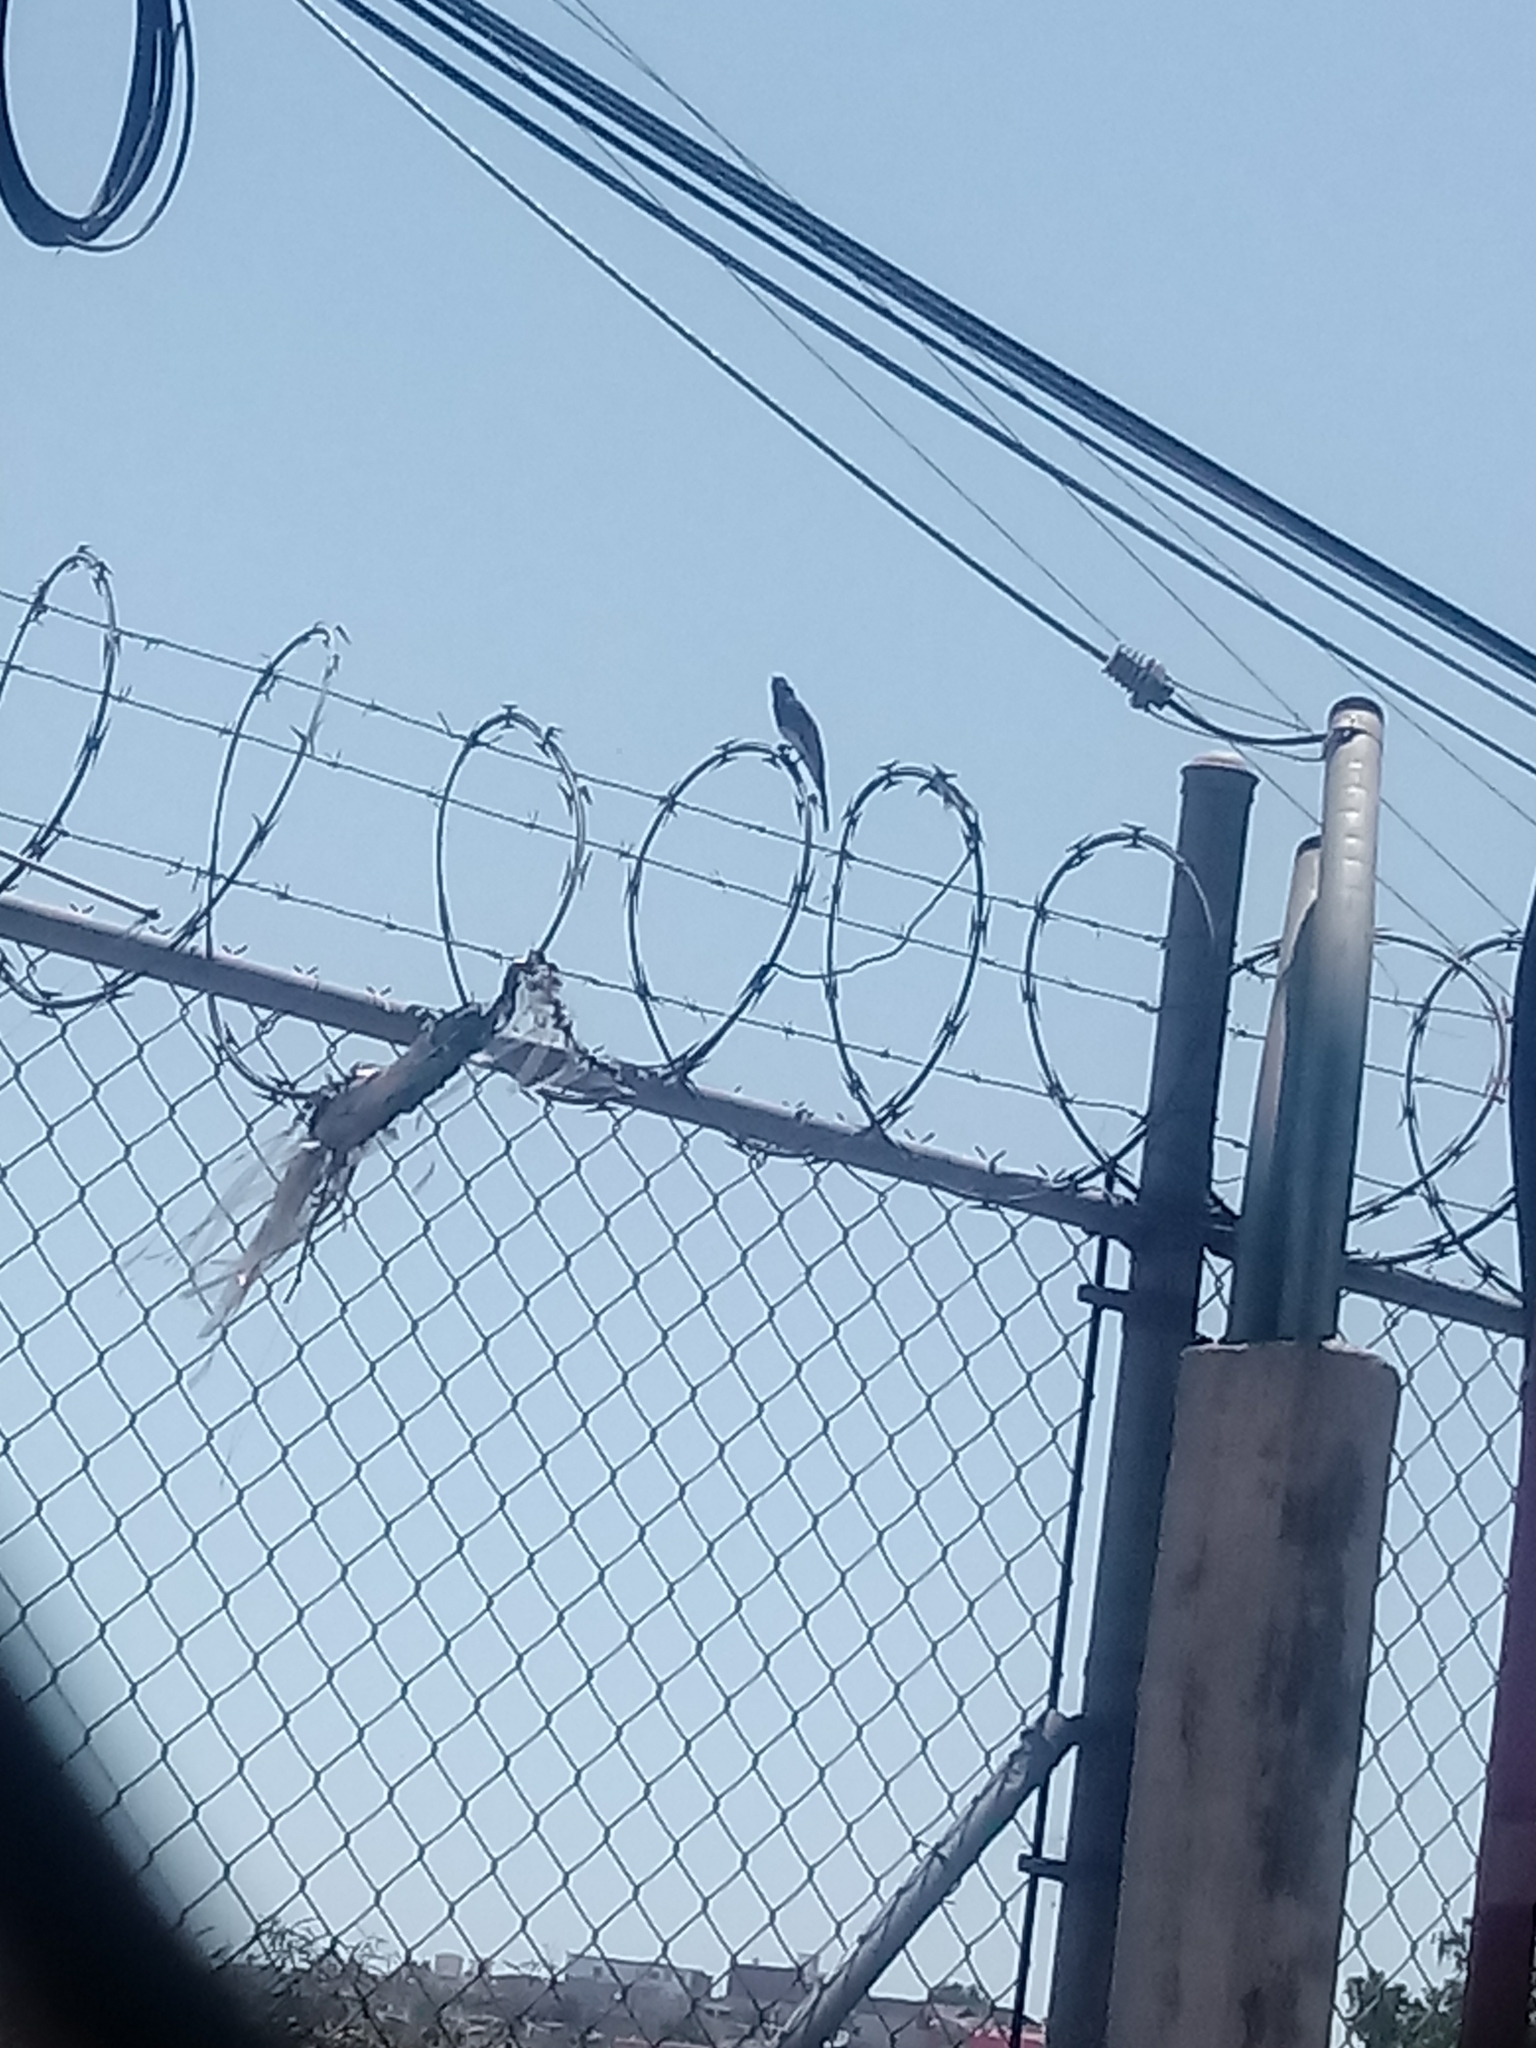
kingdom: Animalia
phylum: Chordata
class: Aves
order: Passeriformes
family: Tyrannidae
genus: Sayornis
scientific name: Sayornis nigricans
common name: Black phoebe
